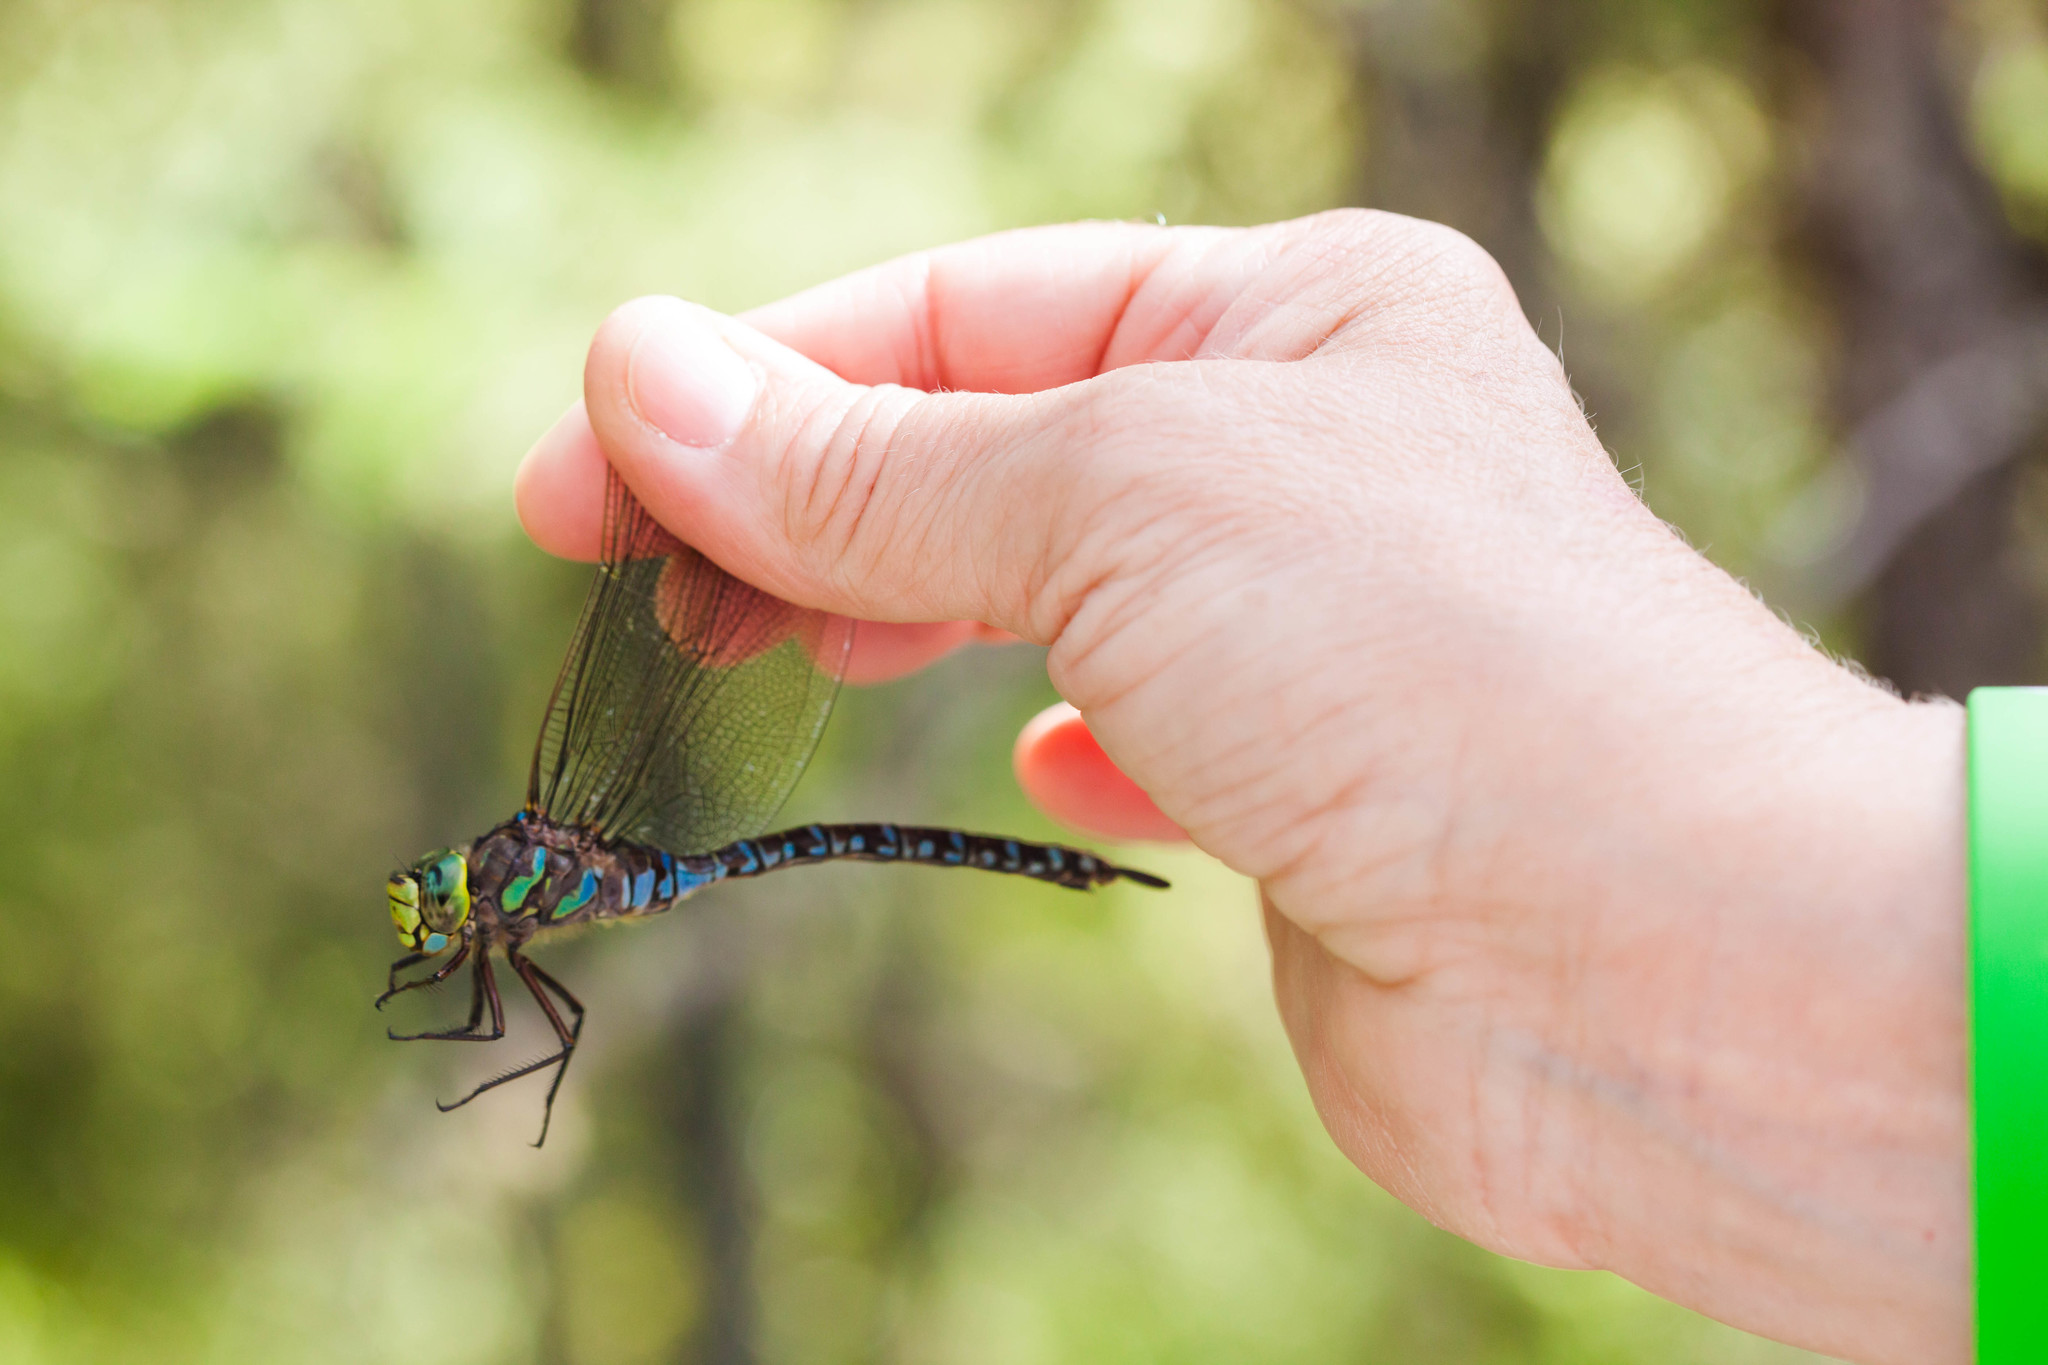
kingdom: Animalia
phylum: Arthropoda
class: Insecta
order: Odonata
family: Aeshnidae
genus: Aeshna
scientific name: Aeshna eremita
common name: Lake darner
